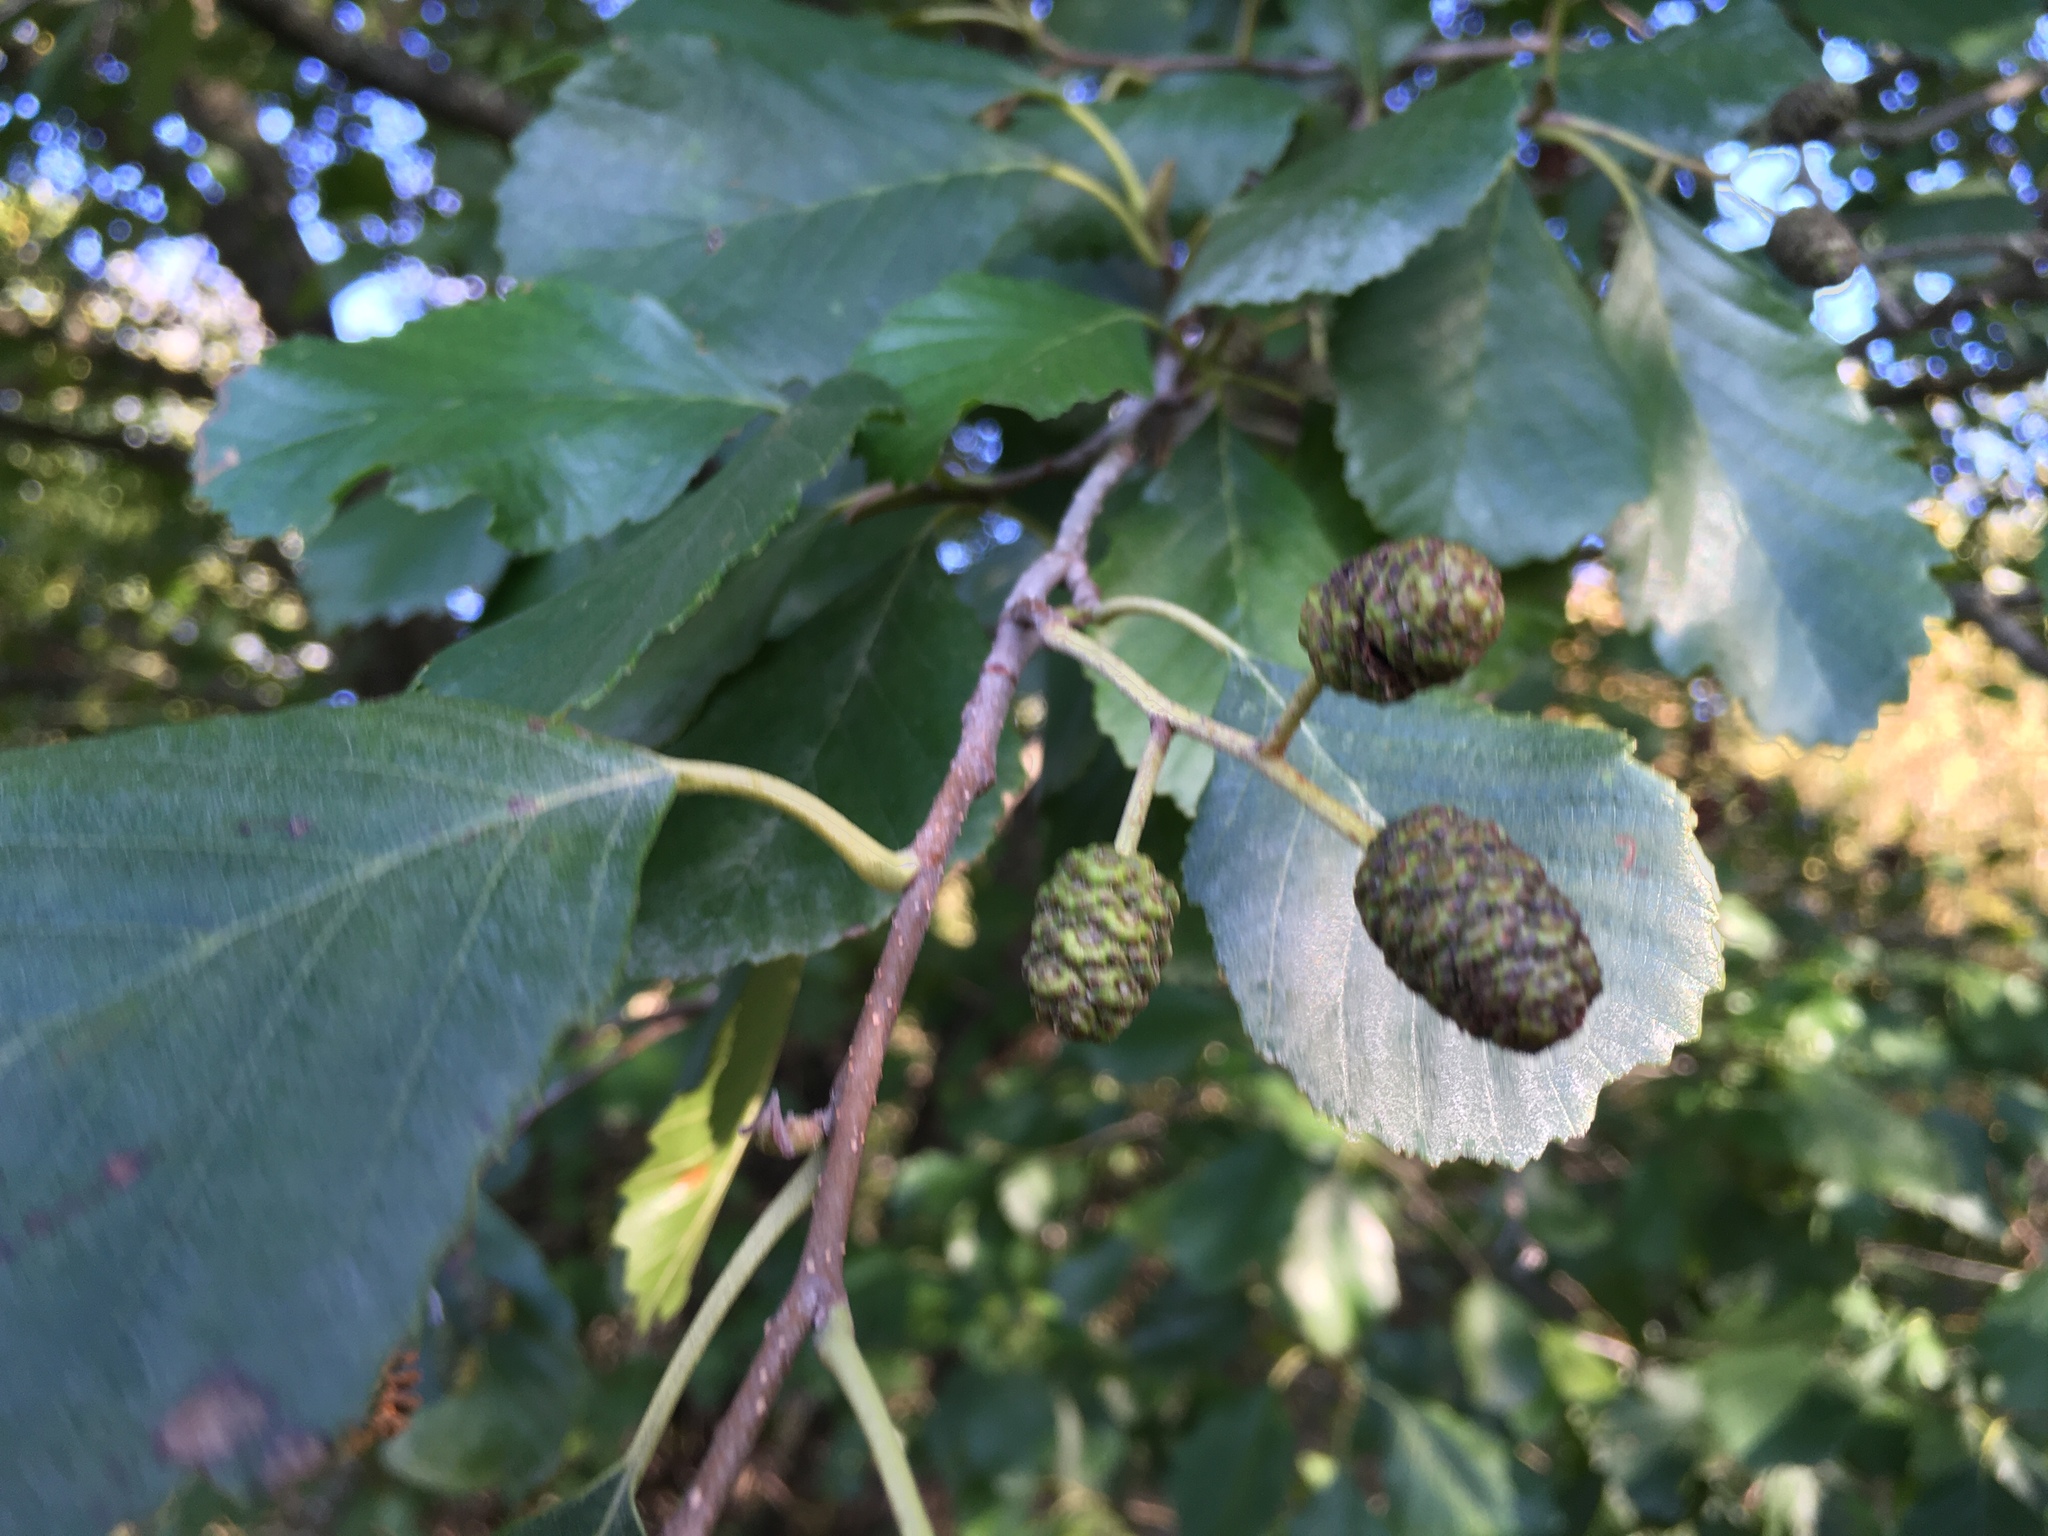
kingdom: Plantae
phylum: Tracheophyta
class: Magnoliopsida
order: Fagales
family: Betulaceae
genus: Alnus
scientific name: Alnus glutinosa
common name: Black alder
